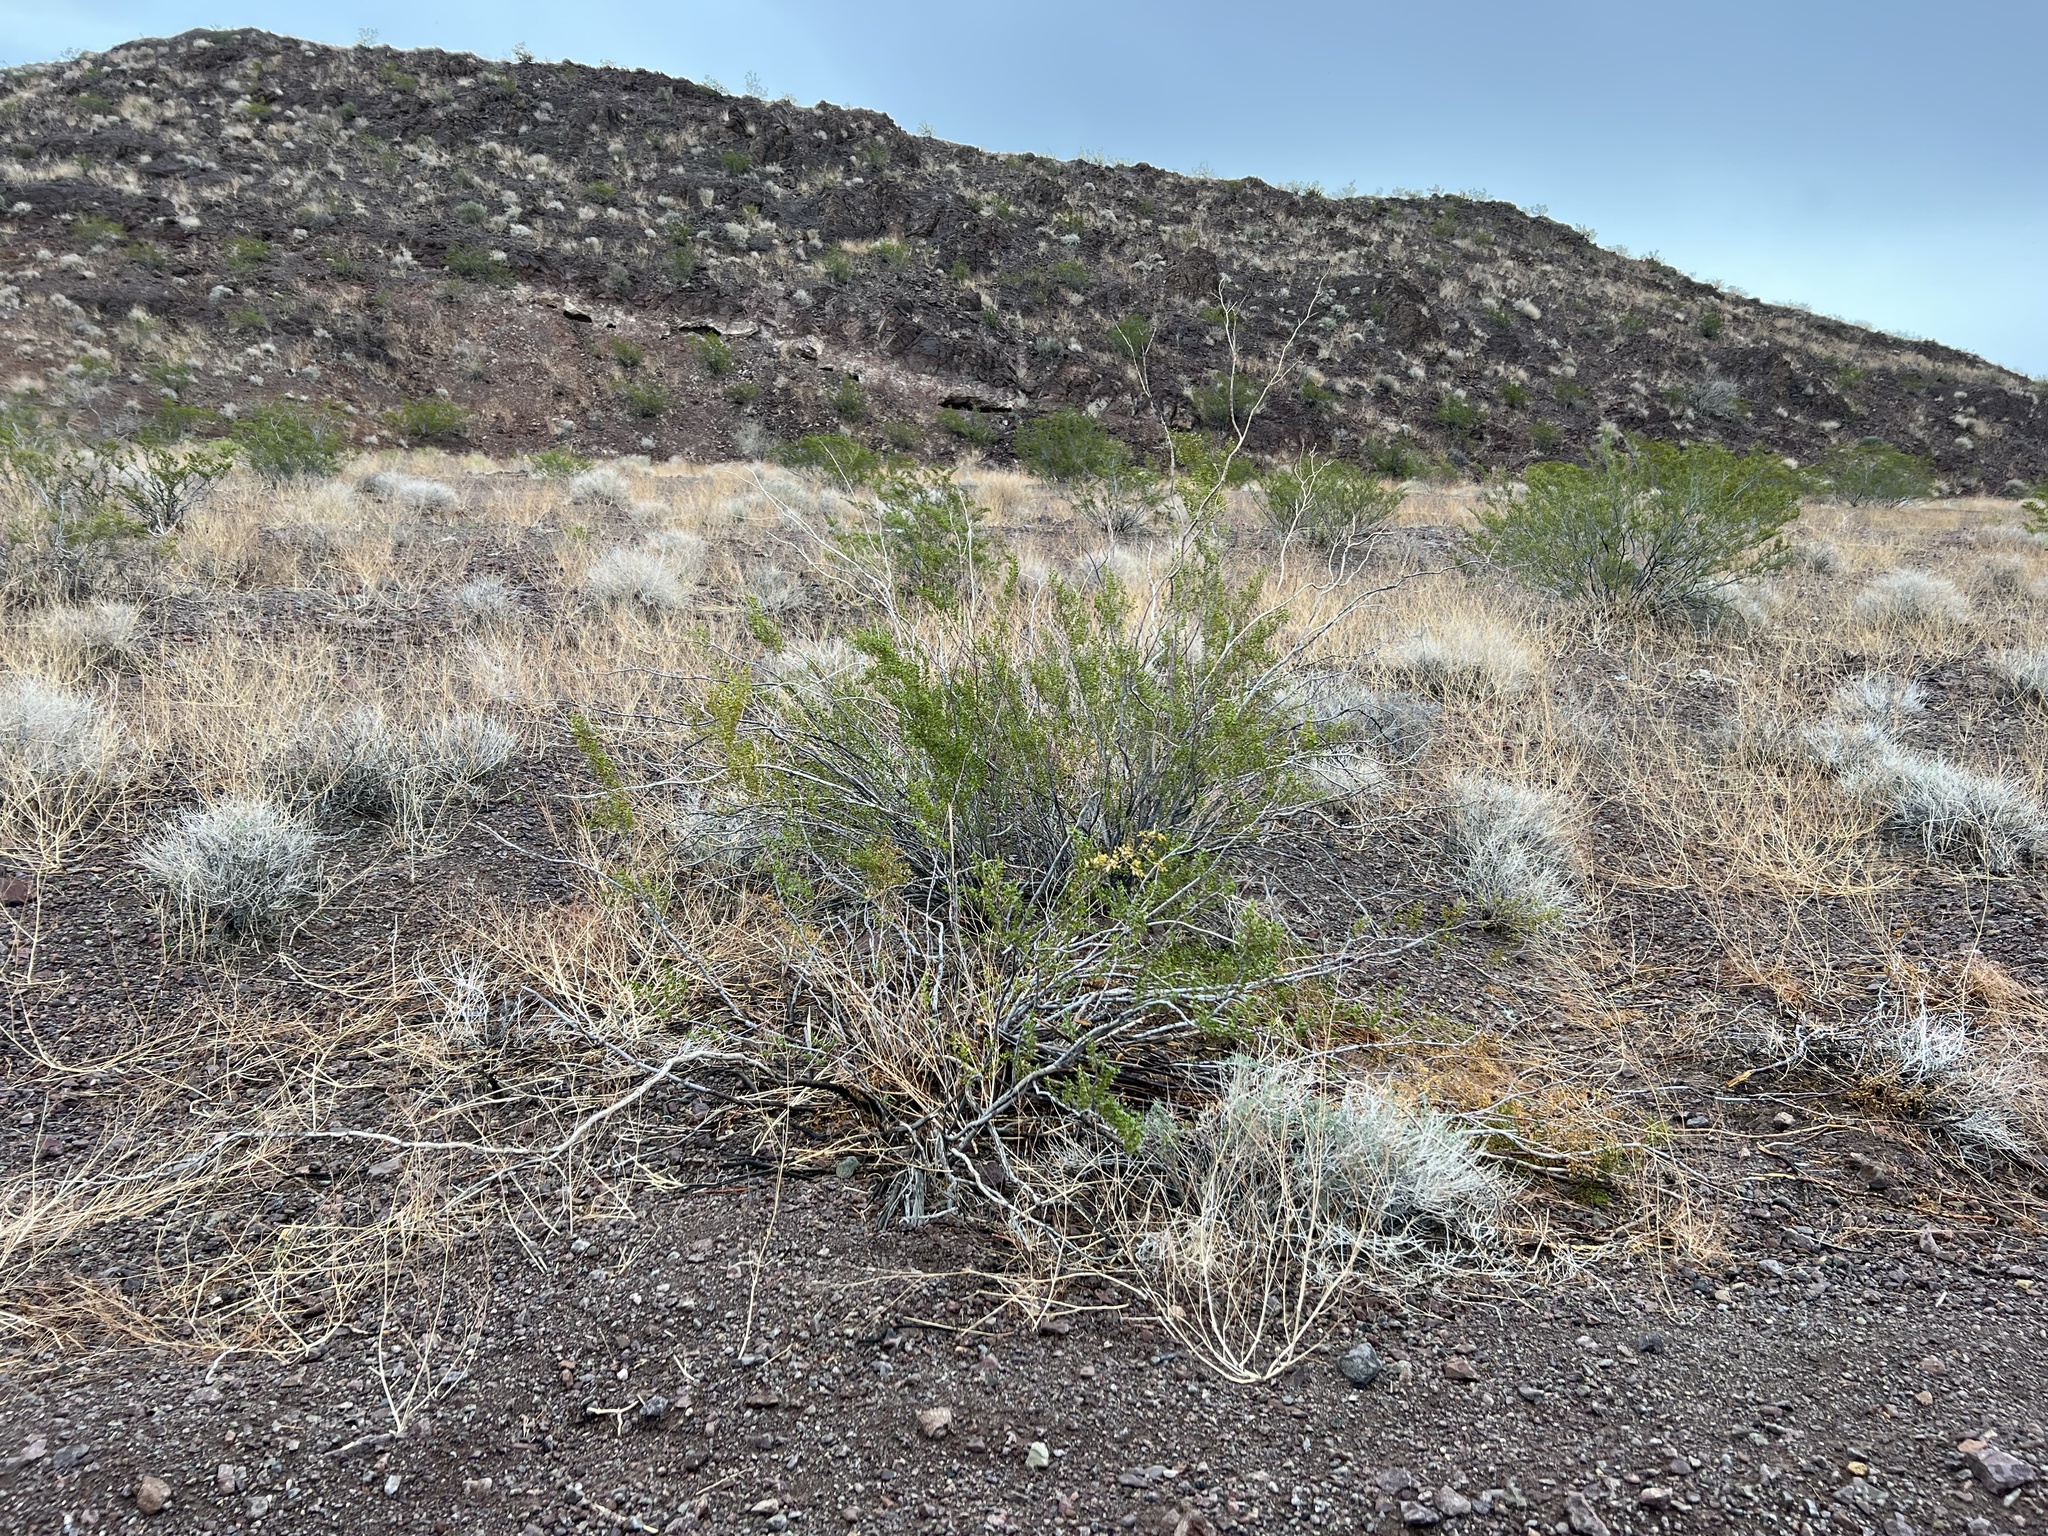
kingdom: Plantae
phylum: Tracheophyta
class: Magnoliopsida
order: Zygophyllales
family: Zygophyllaceae
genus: Larrea
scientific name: Larrea tridentata
